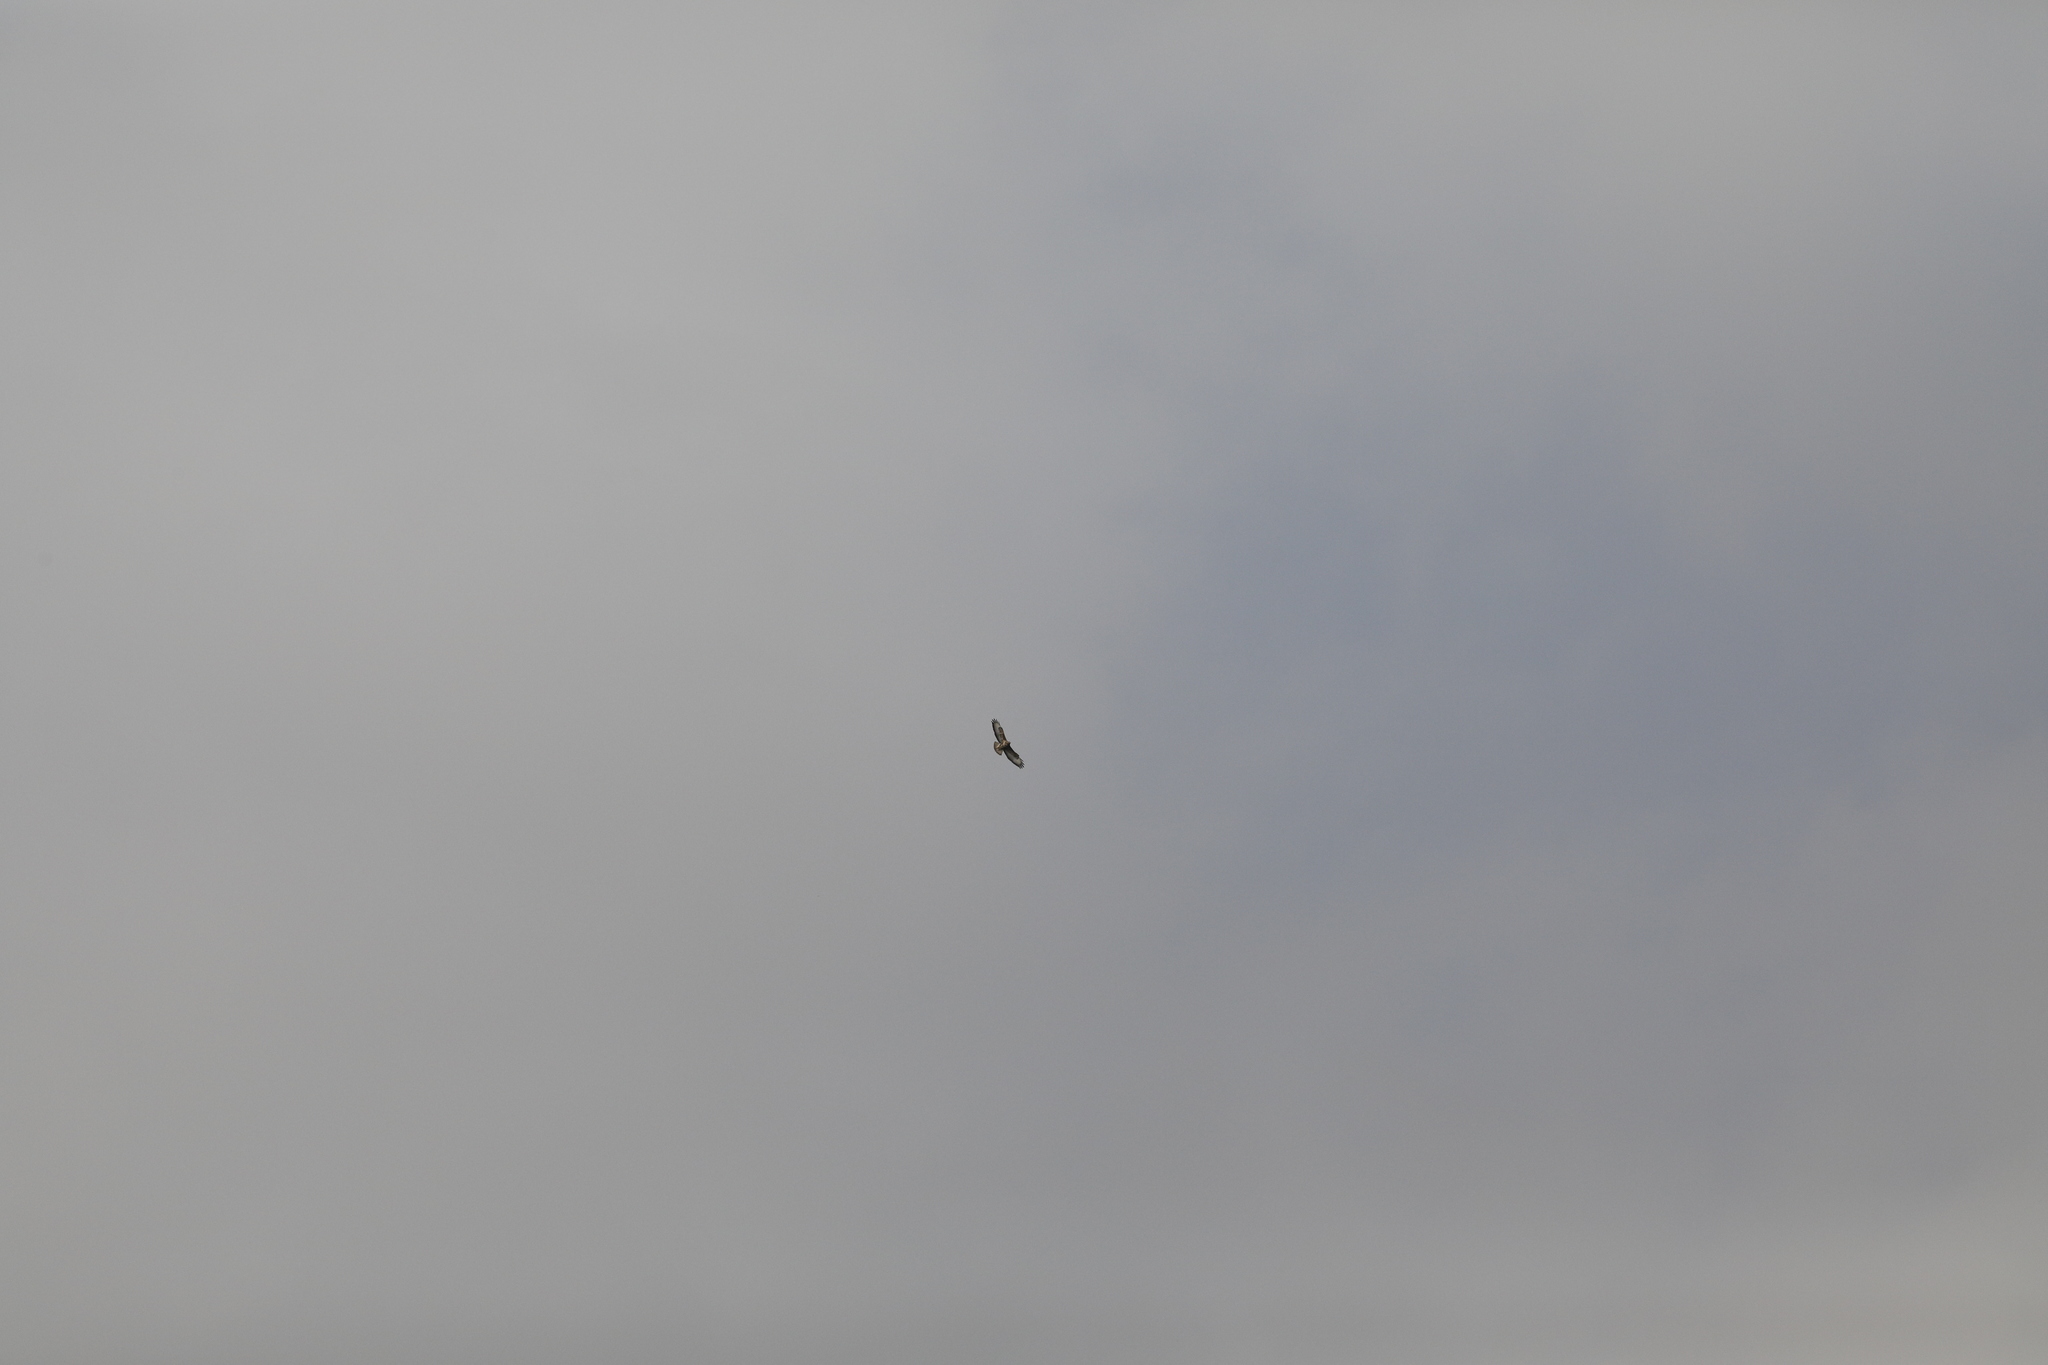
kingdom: Animalia
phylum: Chordata
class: Aves
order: Accipitriformes
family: Accipitridae
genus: Buteo
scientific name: Buteo buteo
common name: Common buzzard
